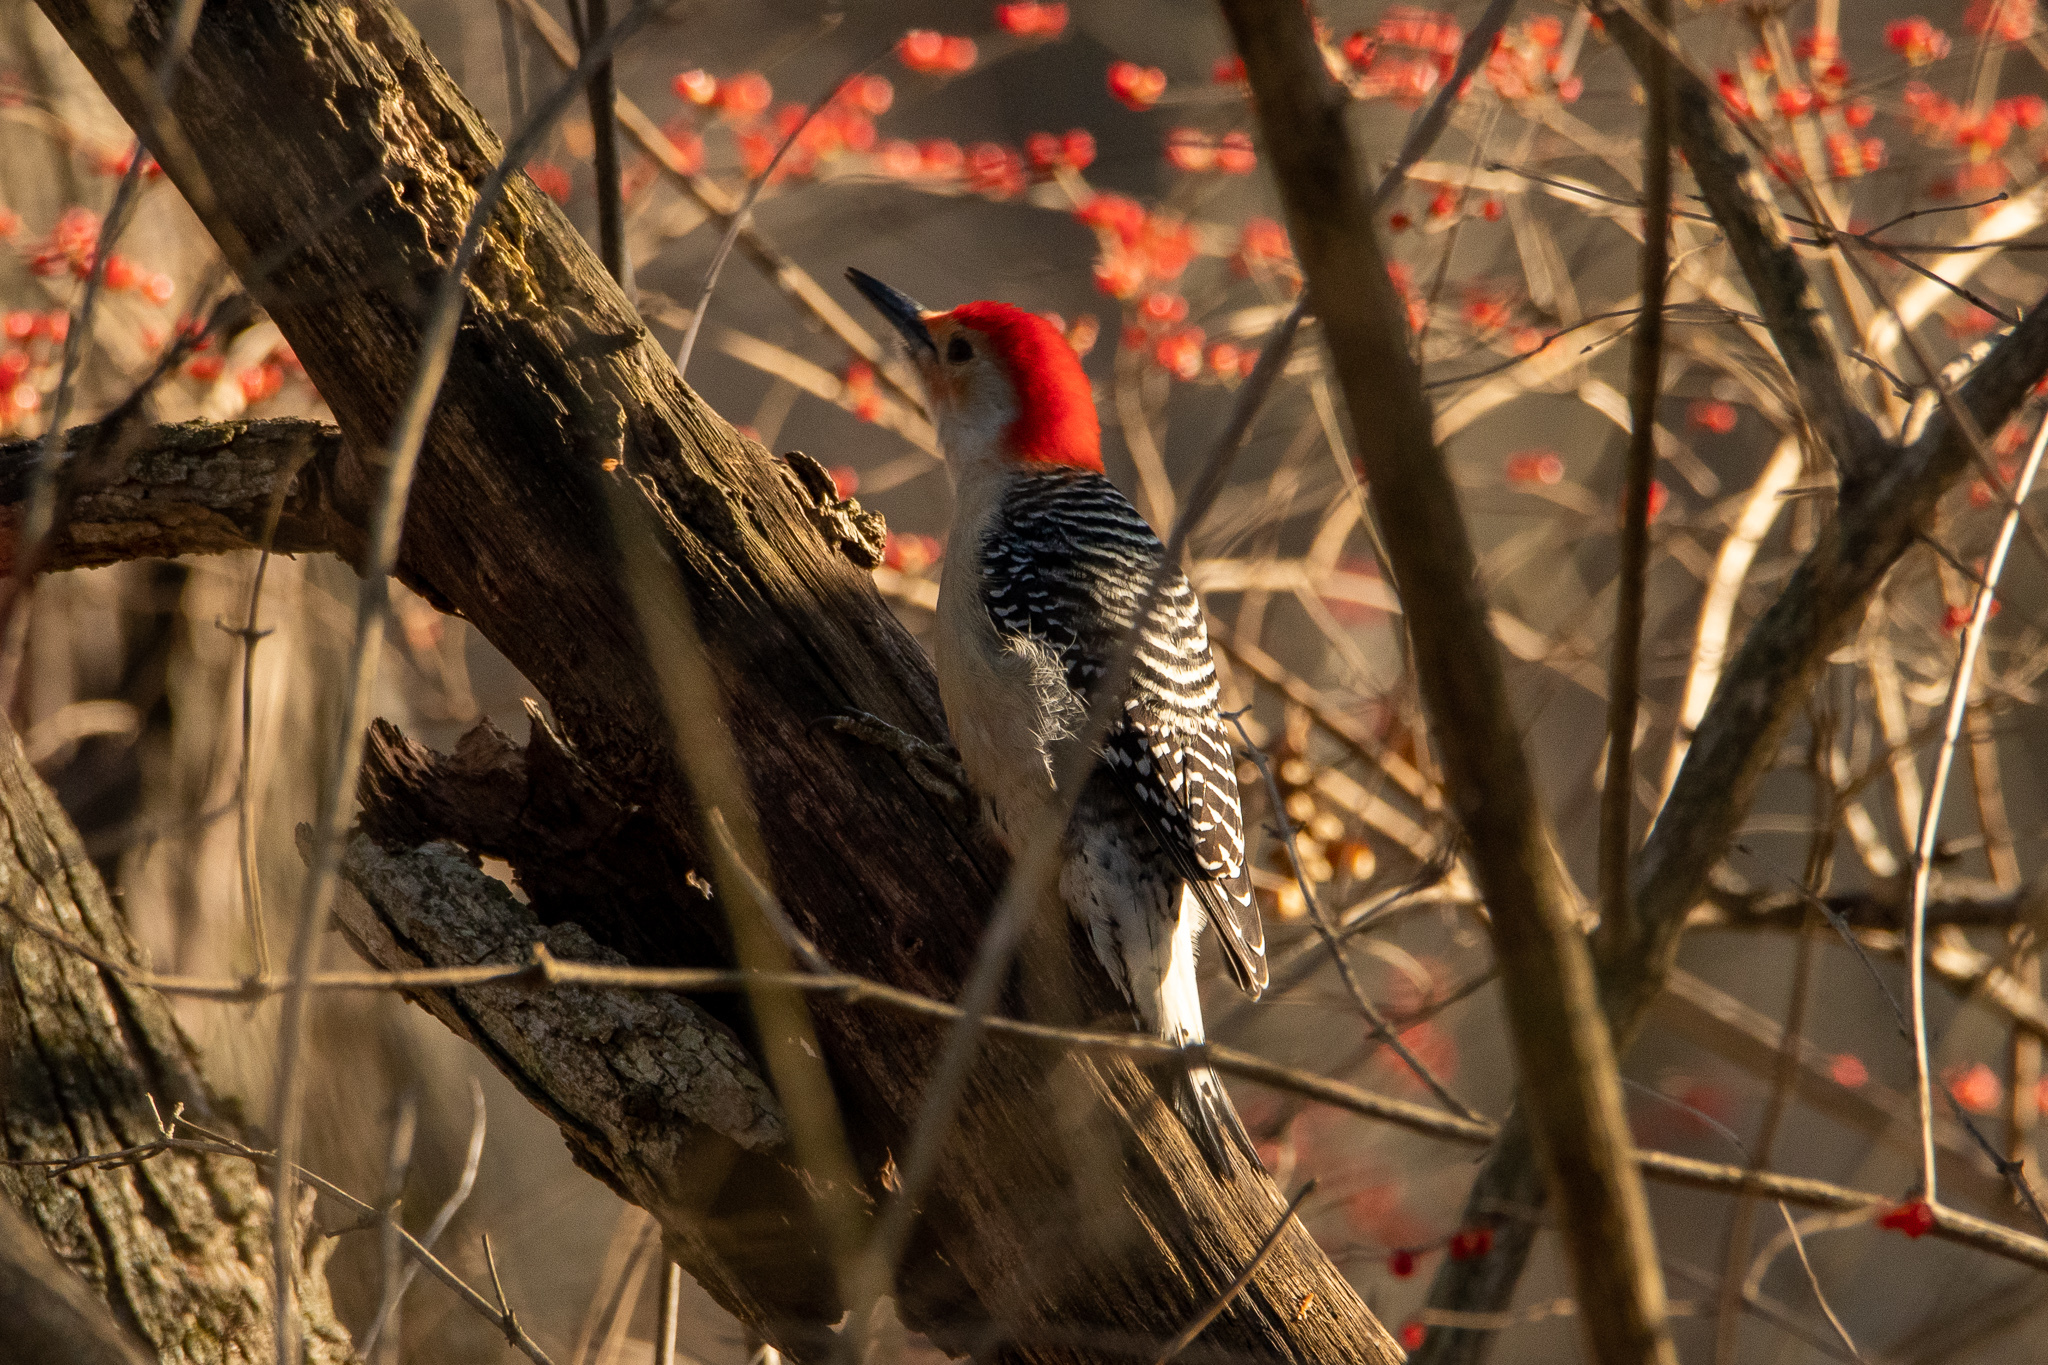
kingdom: Animalia
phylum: Chordata
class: Aves
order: Piciformes
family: Picidae
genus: Melanerpes
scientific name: Melanerpes carolinus
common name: Red-bellied woodpecker
